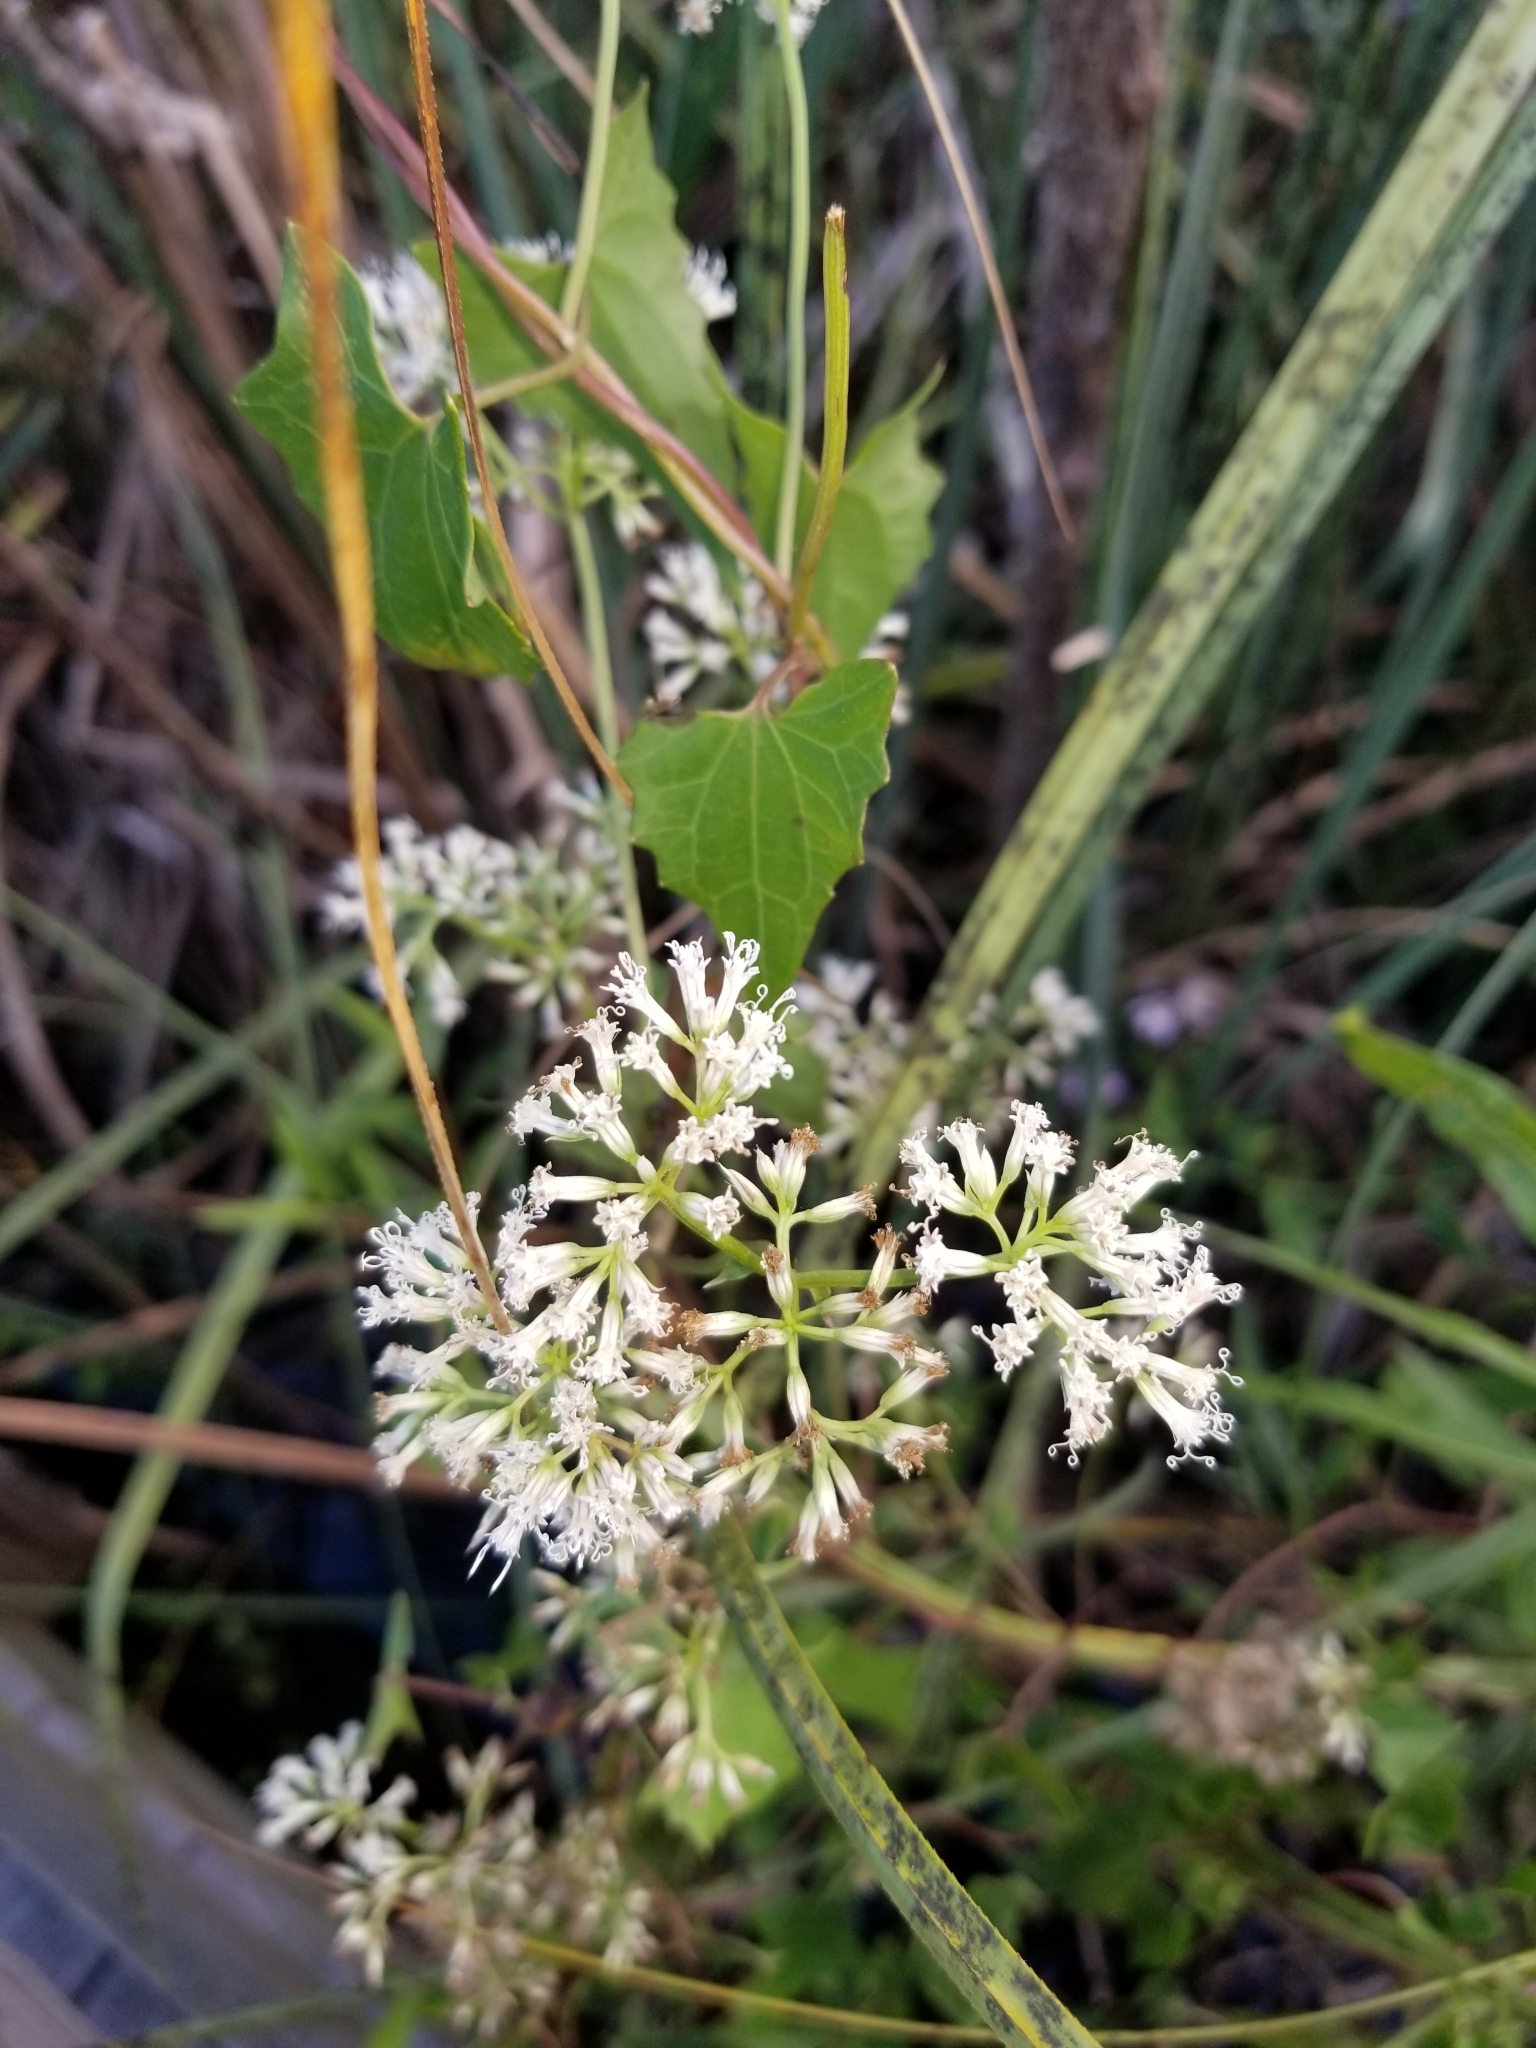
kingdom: Plantae
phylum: Tracheophyta
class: Magnoliopsida
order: Asterales
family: Asteraceae
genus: Mikania
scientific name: Mikania scandens
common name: Climbing hempvine
